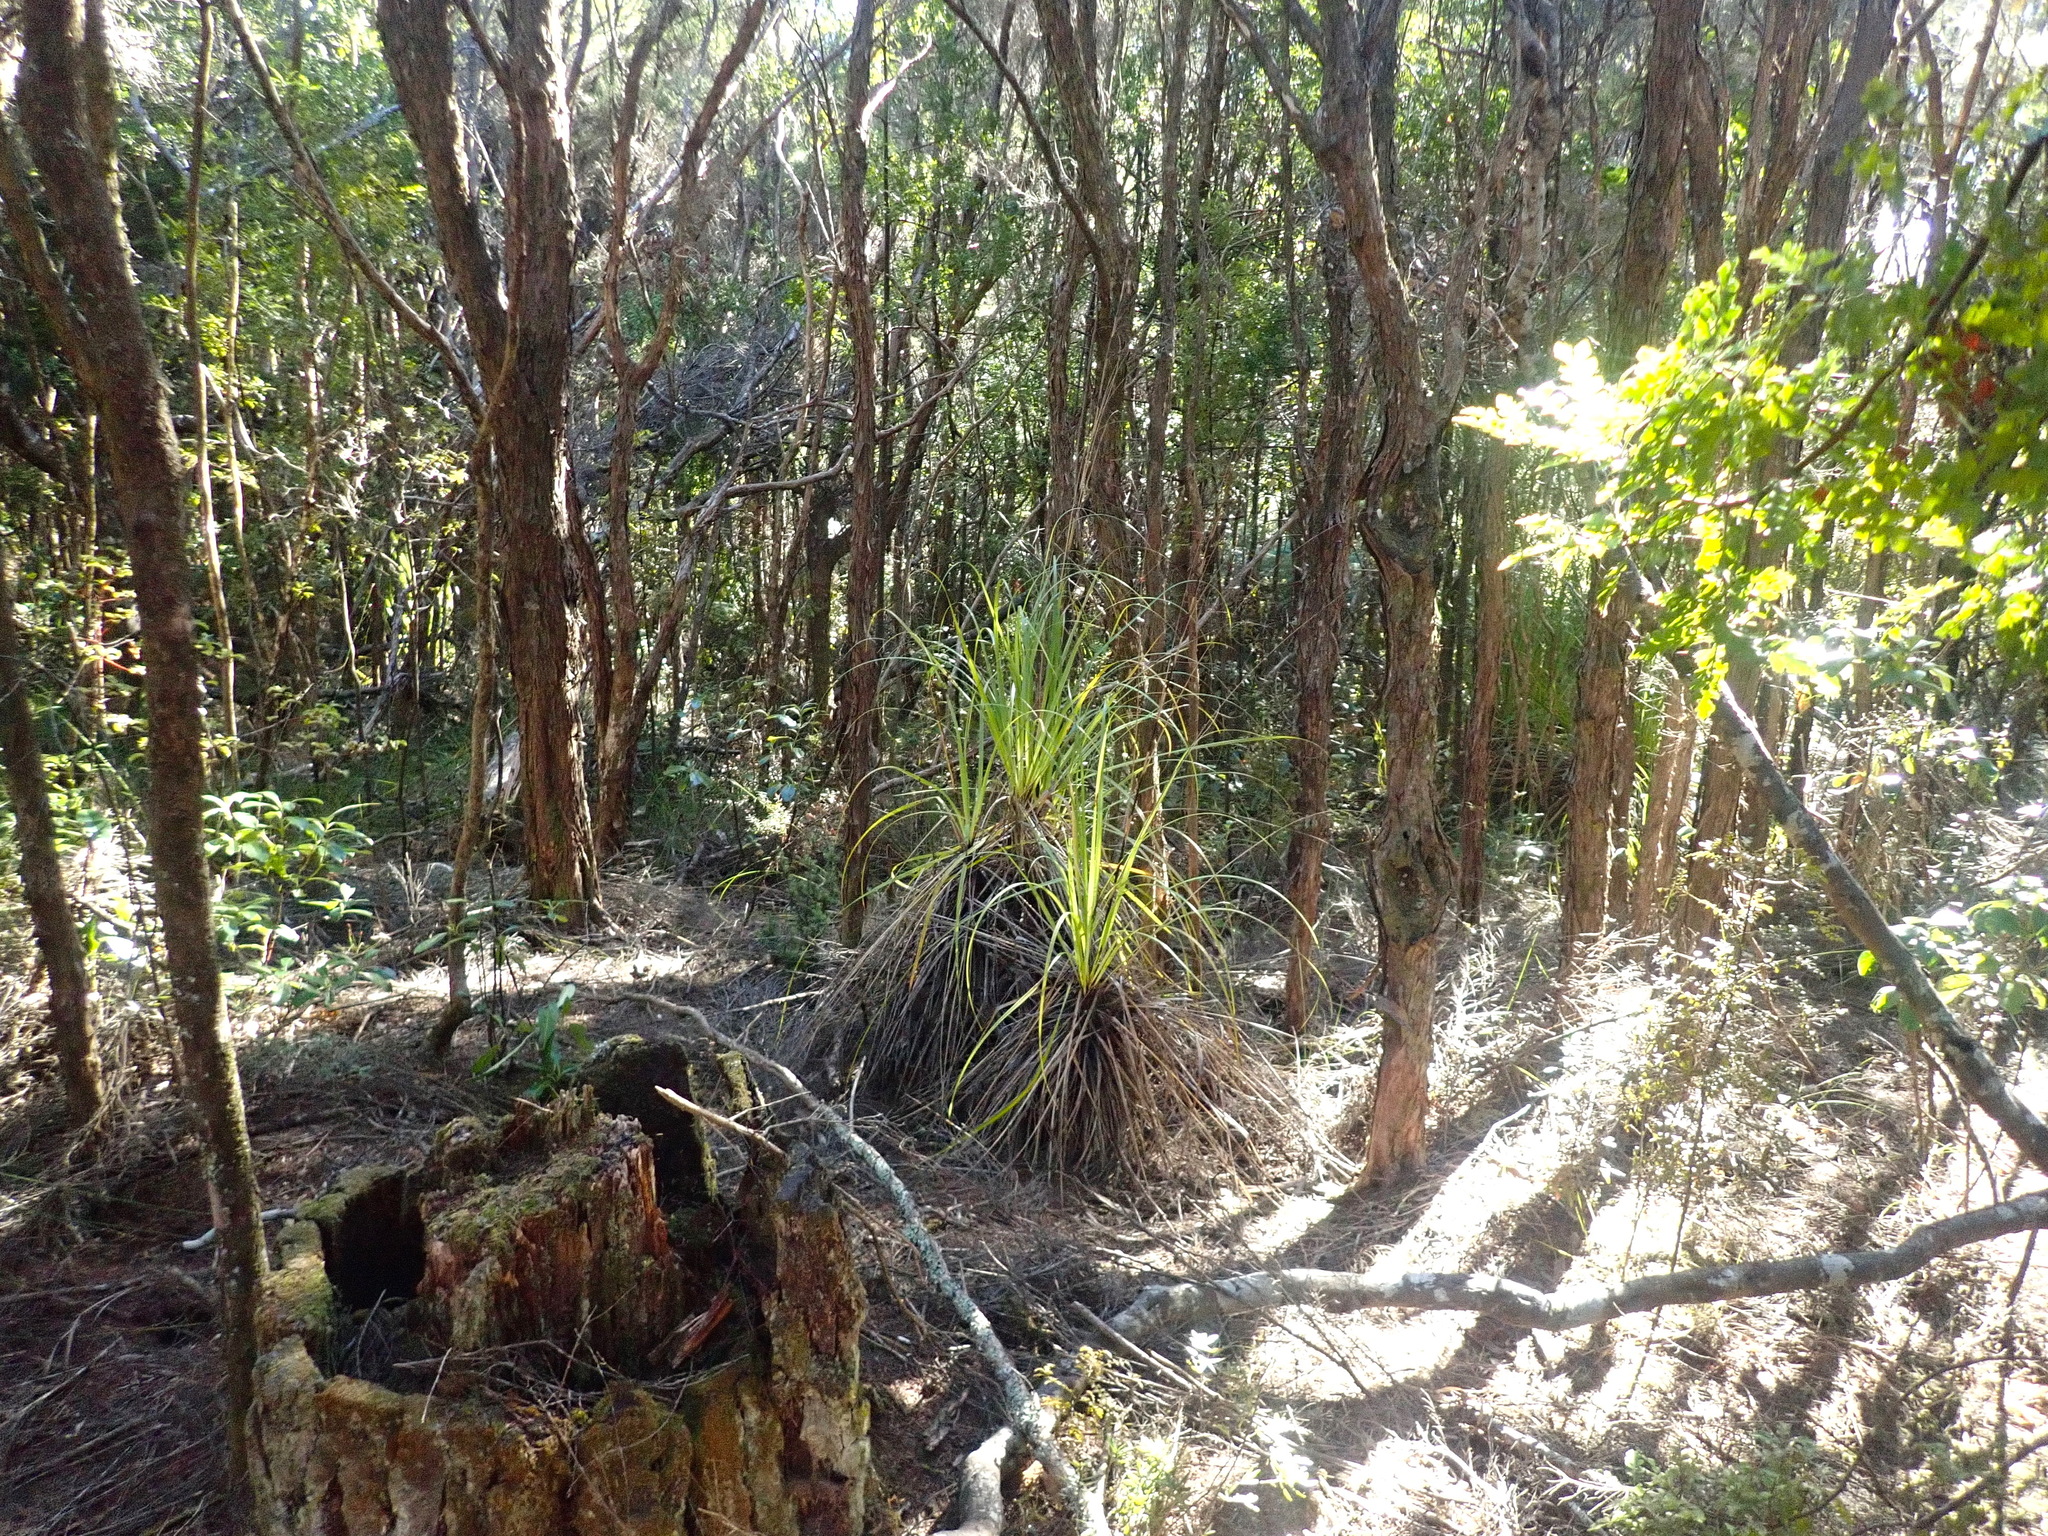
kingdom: Plantae
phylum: Tracheophyta
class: Liliopsida
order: Poales
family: Cyperaceae
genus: Gahnia
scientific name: Gahnia xanthocarpa
